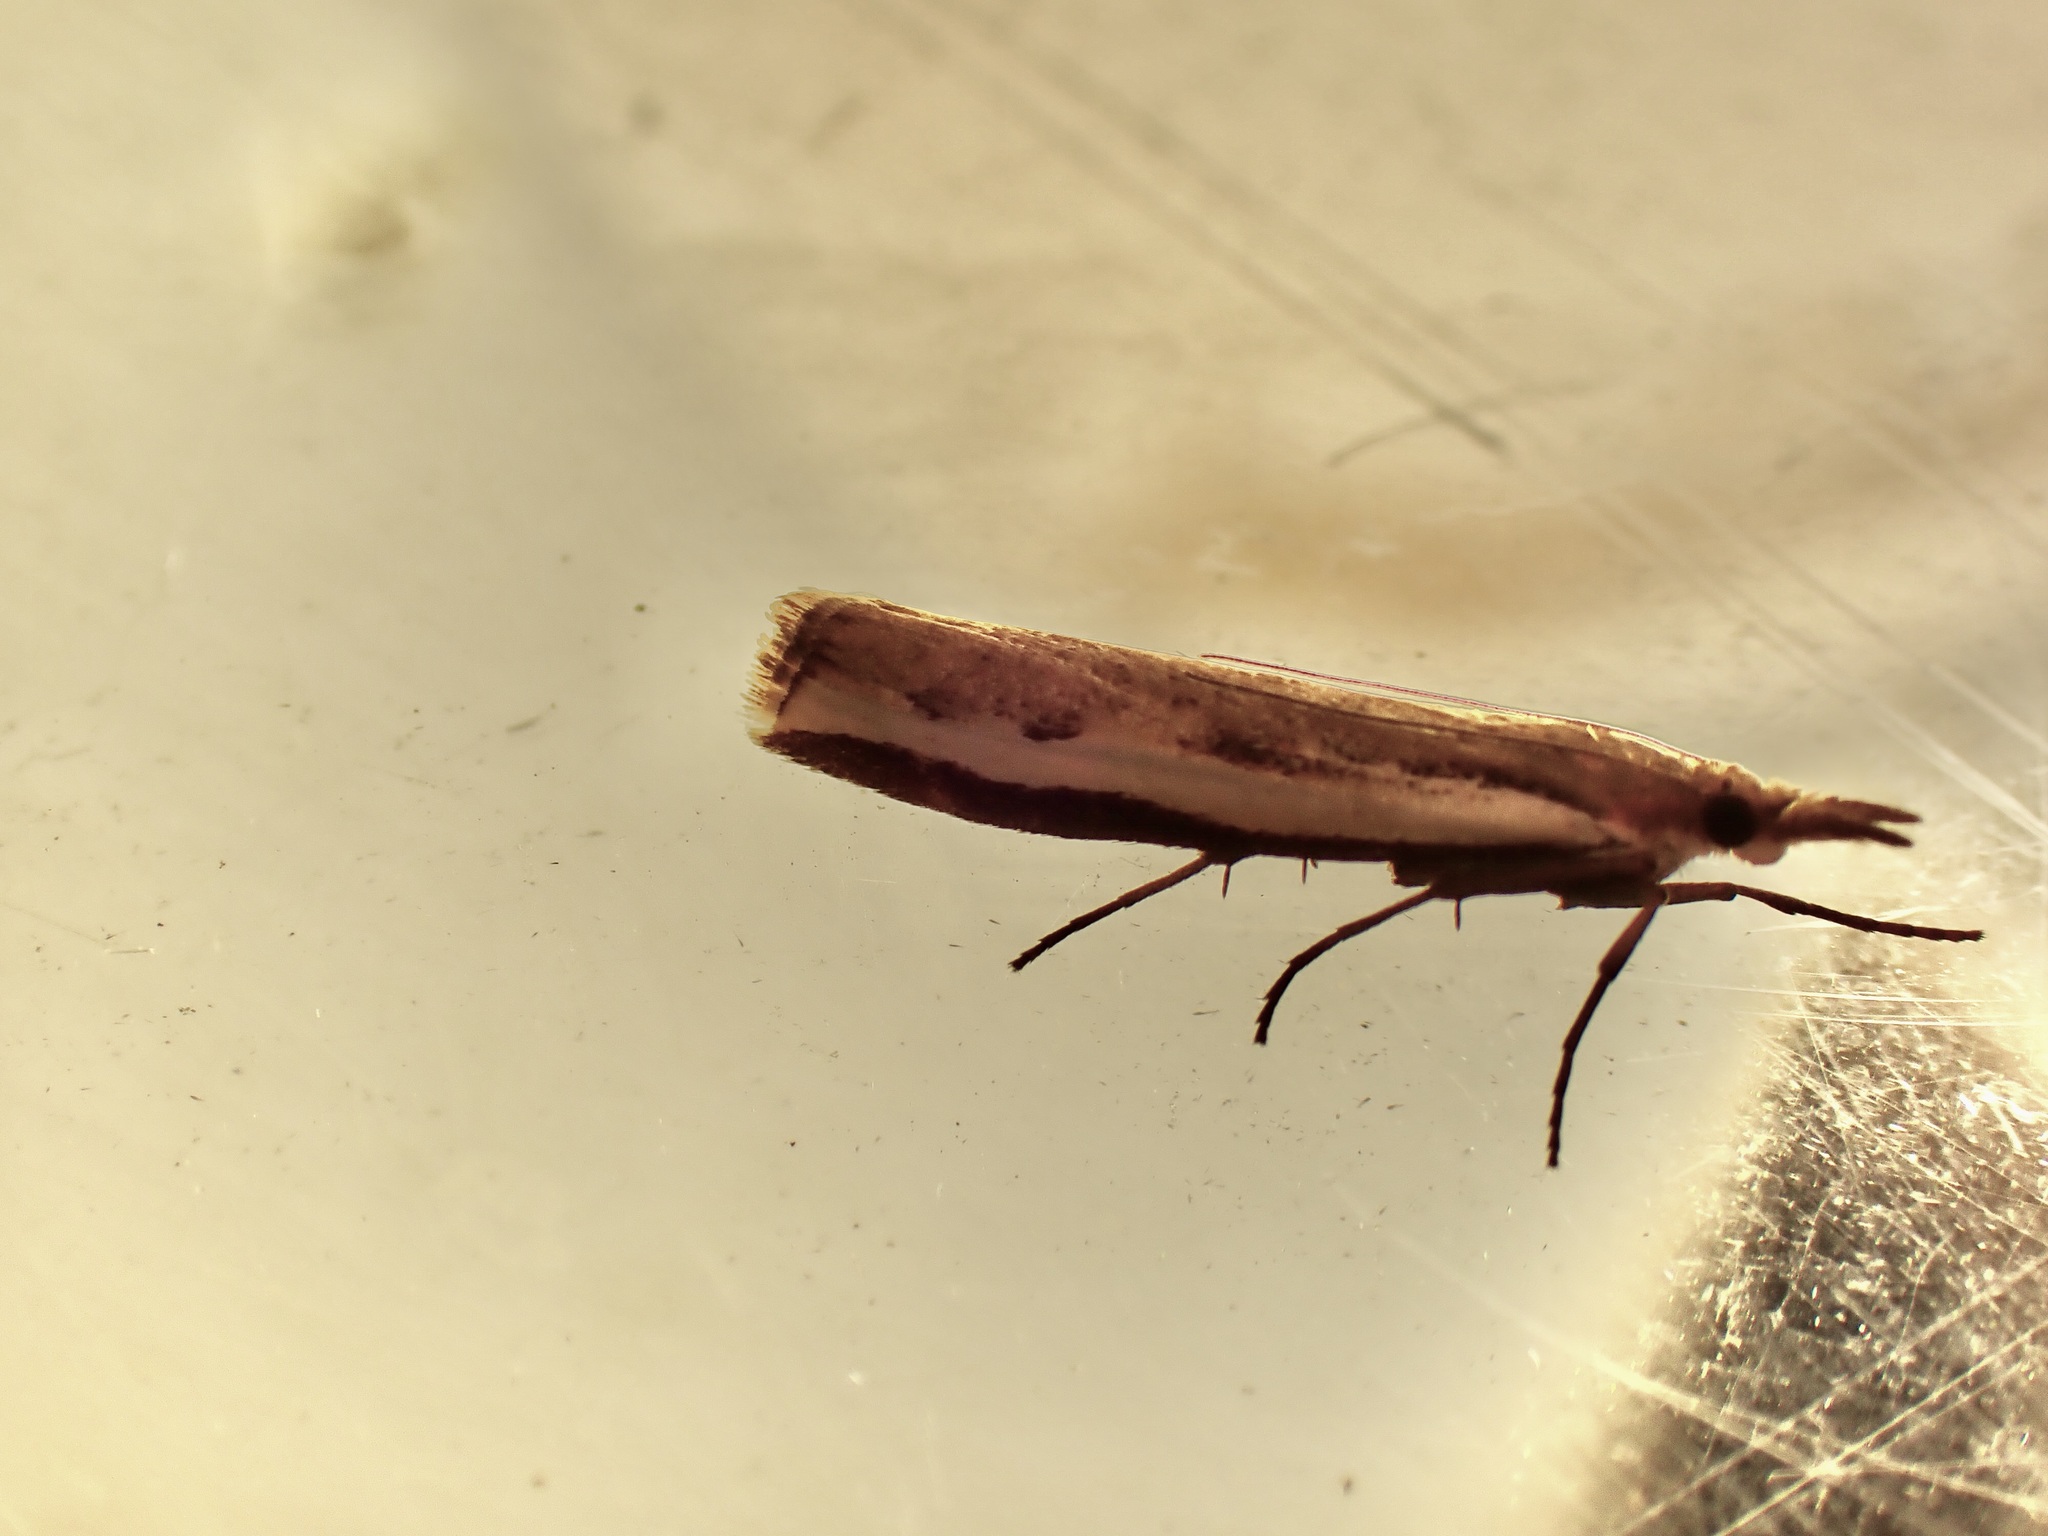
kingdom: Animalia
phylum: Arthropoda
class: Insecta
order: Lepidoptera
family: Crambidae
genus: Orocrambus
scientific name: Orocrambus flexuosellus
